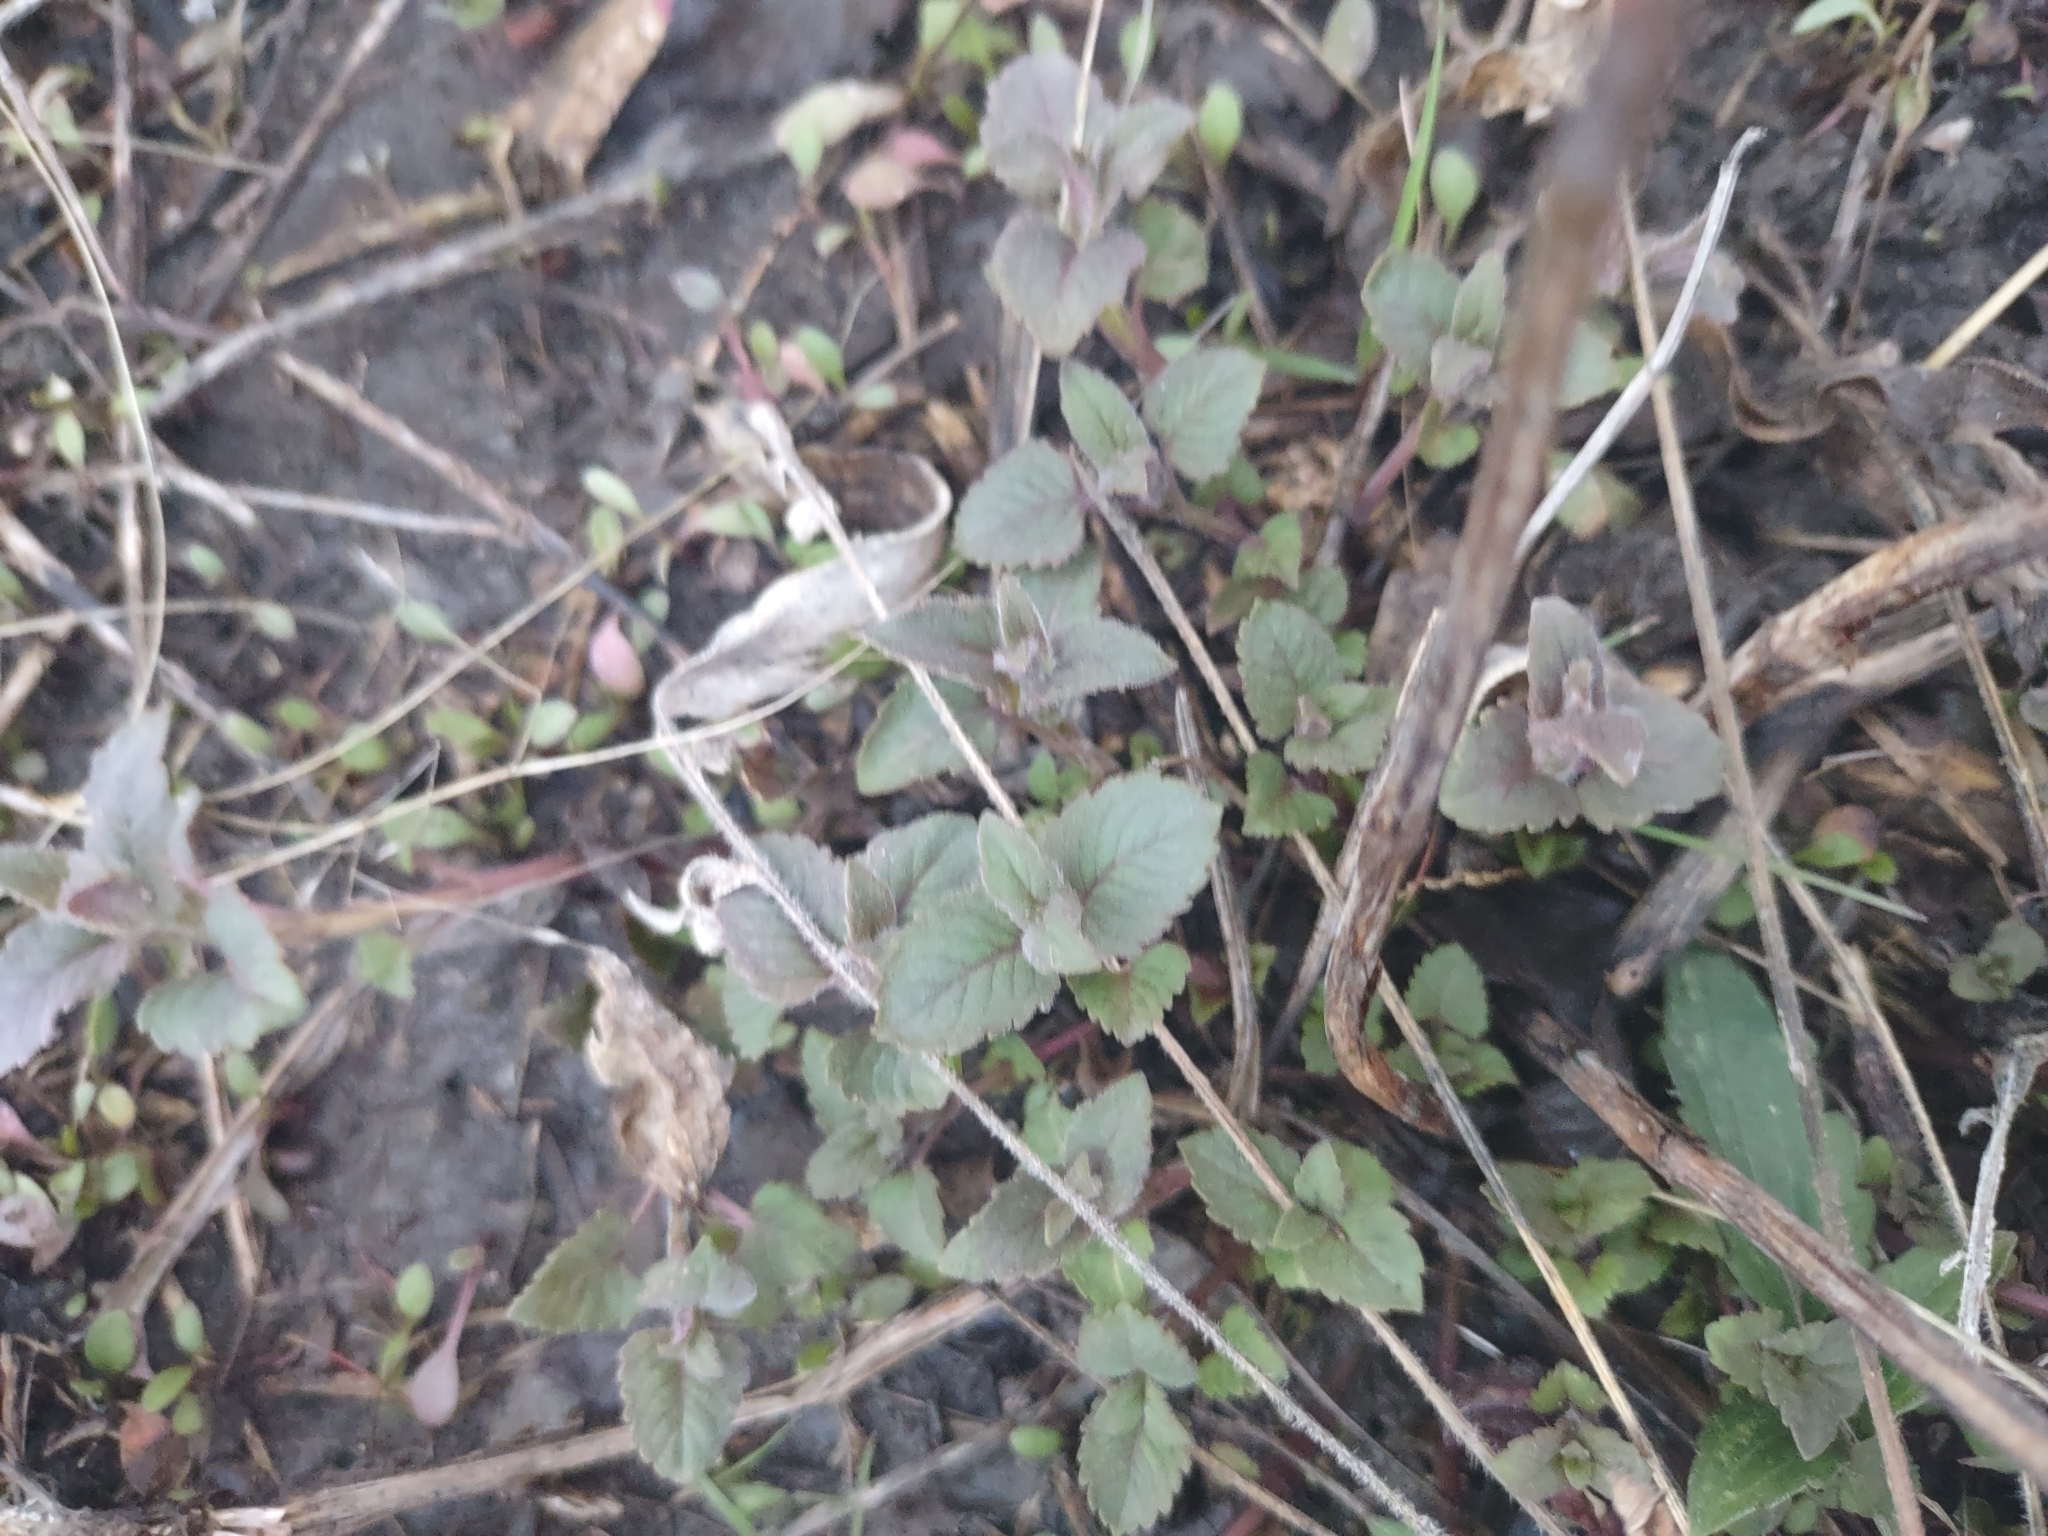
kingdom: Plantae
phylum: Tracheophyta
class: Magnoliopsida
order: Lamiales
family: Lamiaceae
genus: Monarda
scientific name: Monarda fistulosa
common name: Purple beebalm
